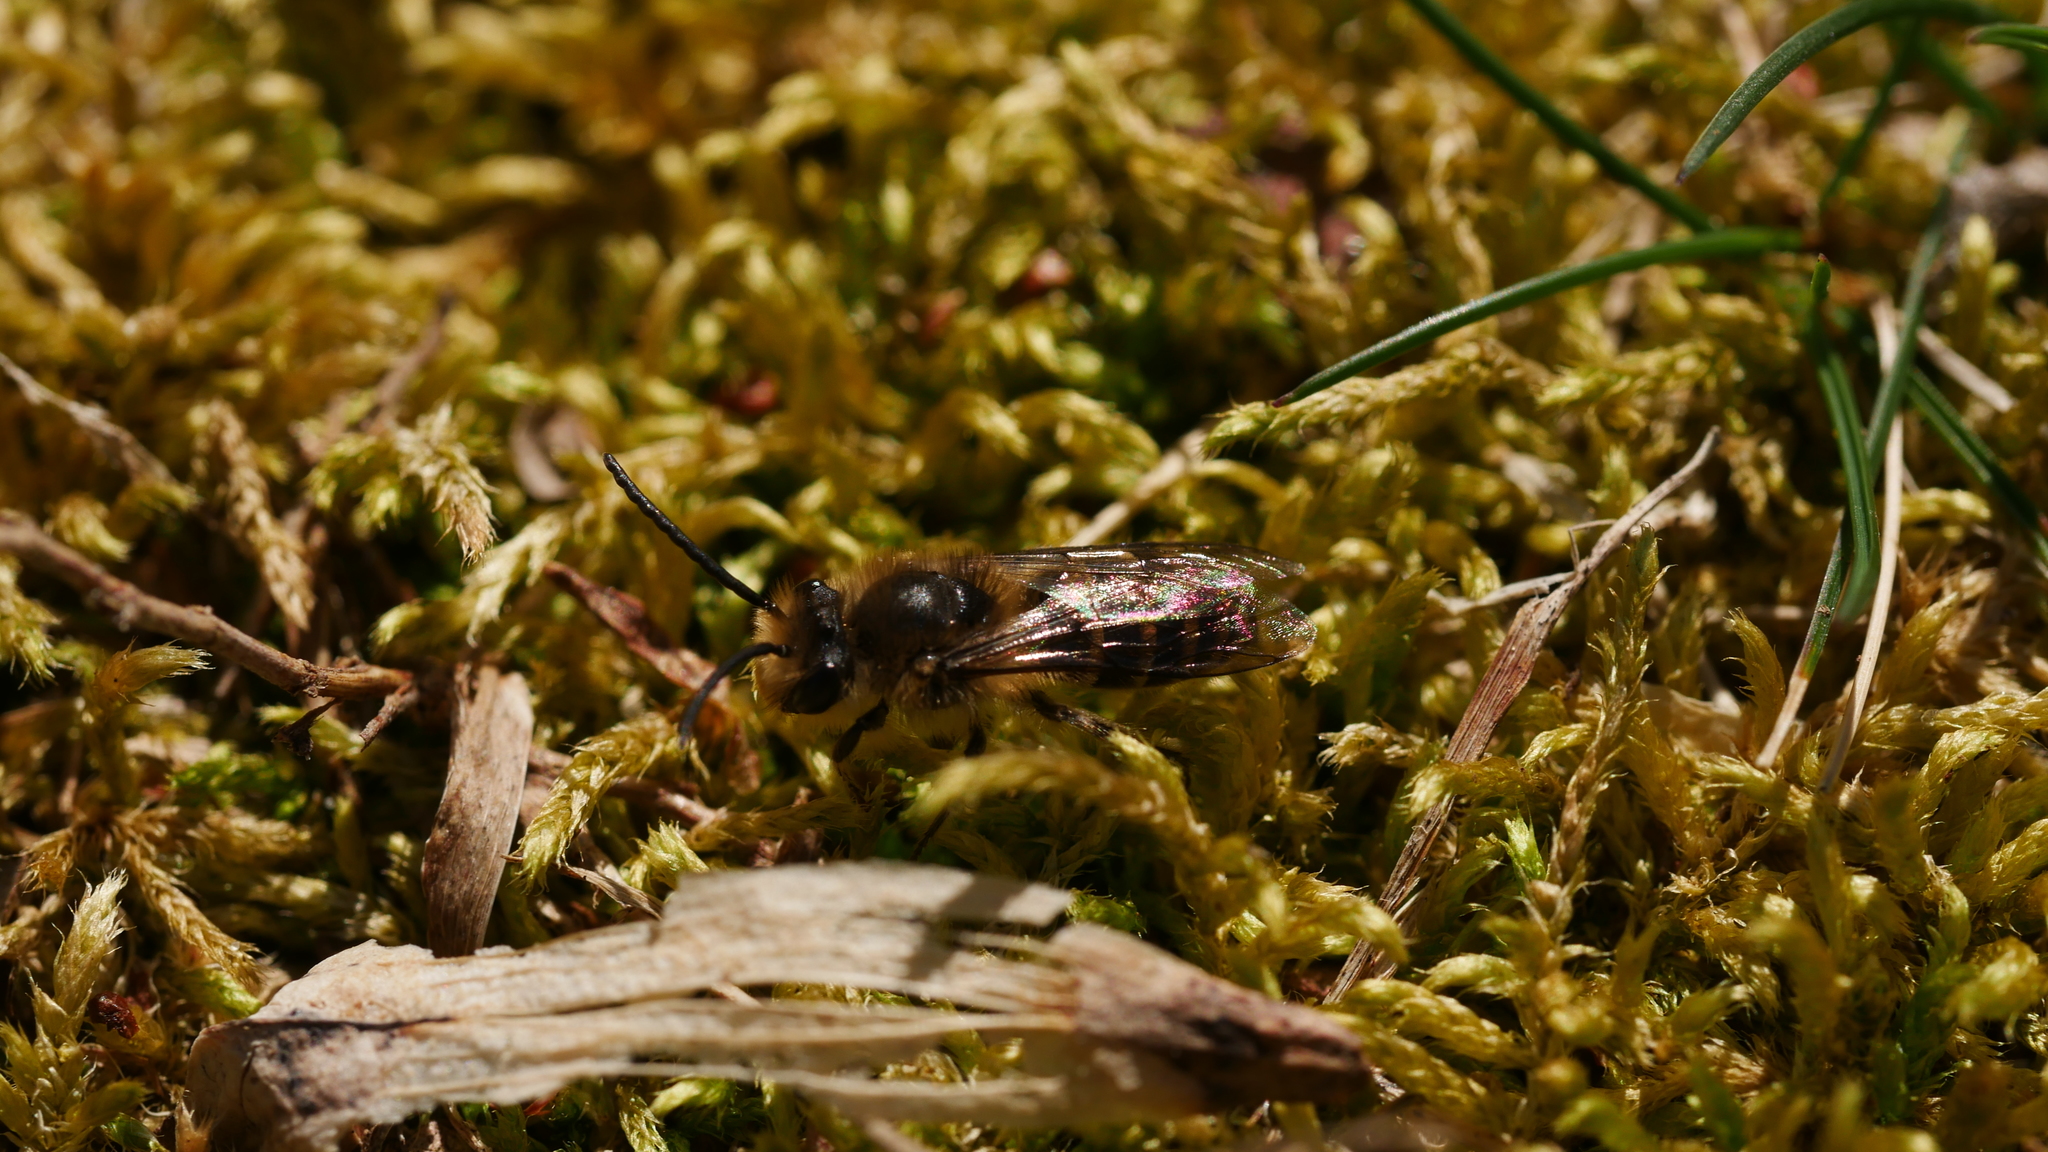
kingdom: Animalia
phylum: Arthropoda
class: Insecta
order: Hymenoptera
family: Colletidae
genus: Colletes
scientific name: Colletes inaequalis
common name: Unequal cellophane bee
